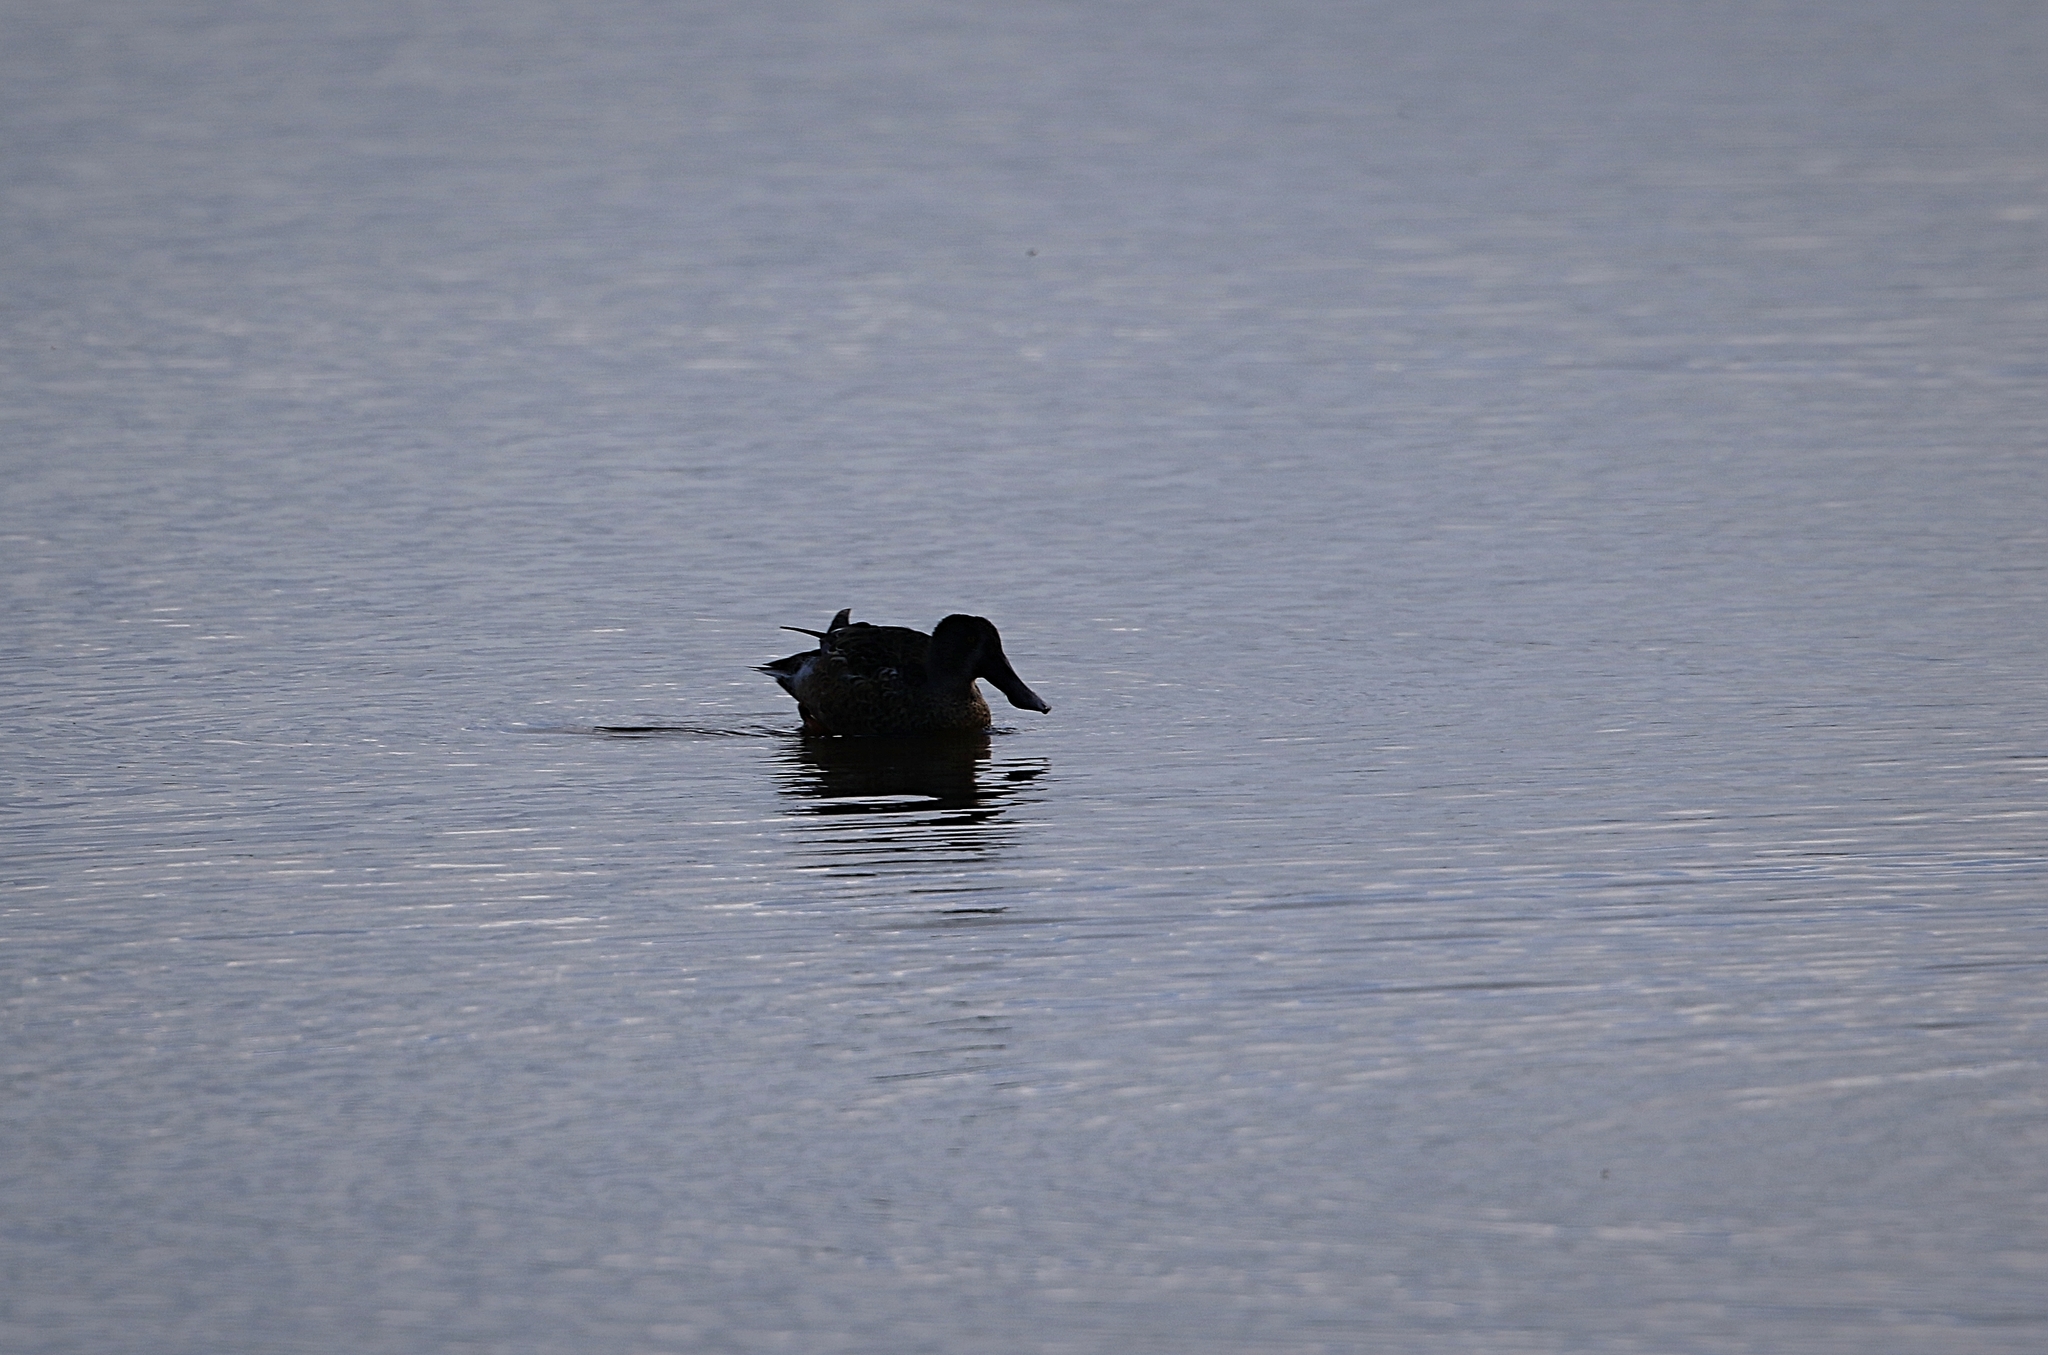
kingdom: Animalia
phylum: Chordata
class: Aves
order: Anseriformes
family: Anatidae
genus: Spatula
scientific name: Spatula clypeata
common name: Northern shoveler
